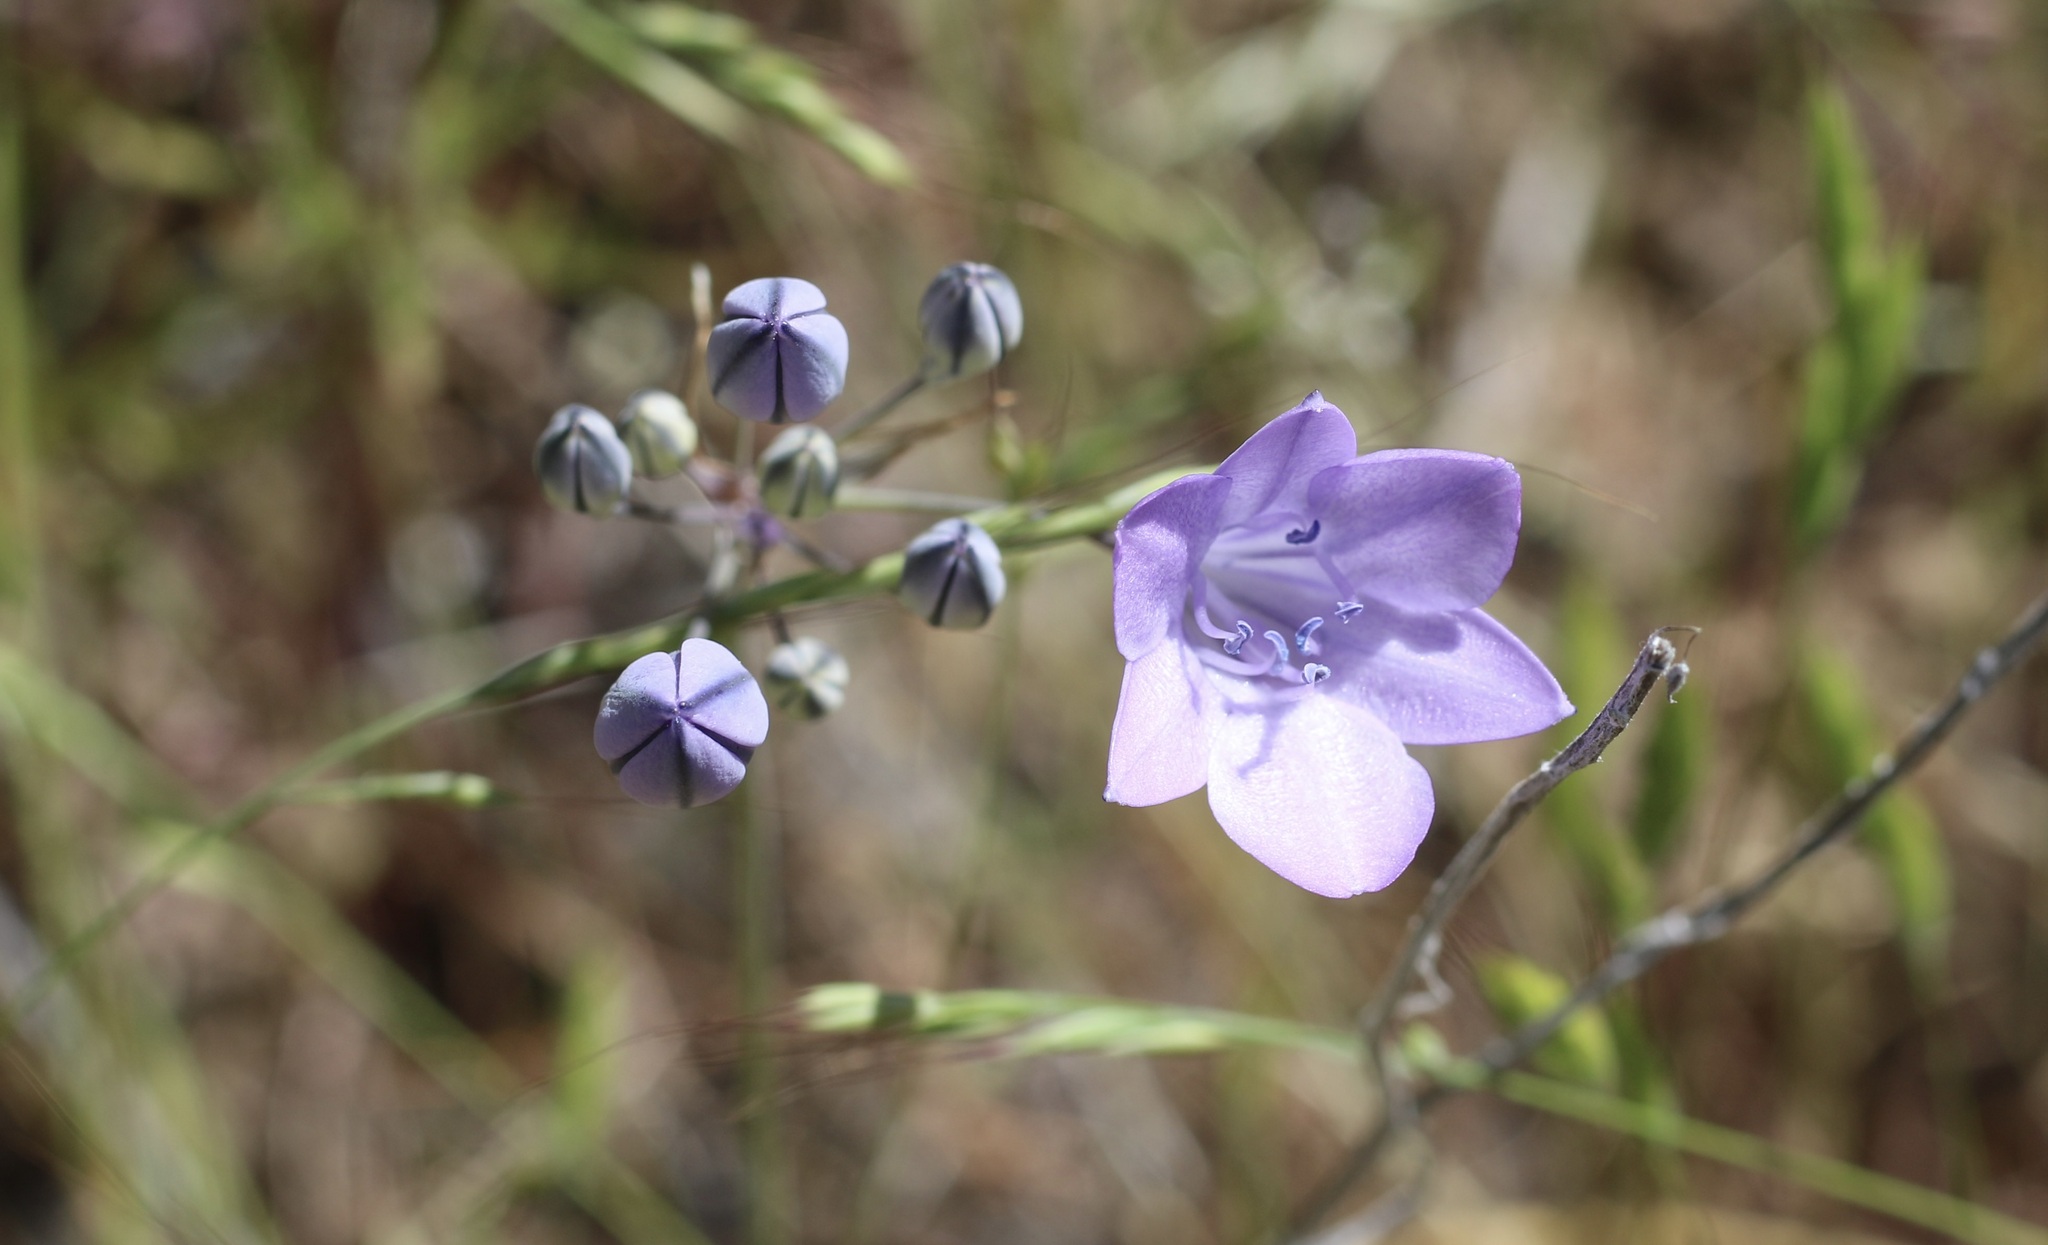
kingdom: Plantae
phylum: Tracheophyta
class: Liliopsida
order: Asparagales
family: Asparagaceae
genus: Triteleia
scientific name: Triteleia laxa
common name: Triplet-lily
